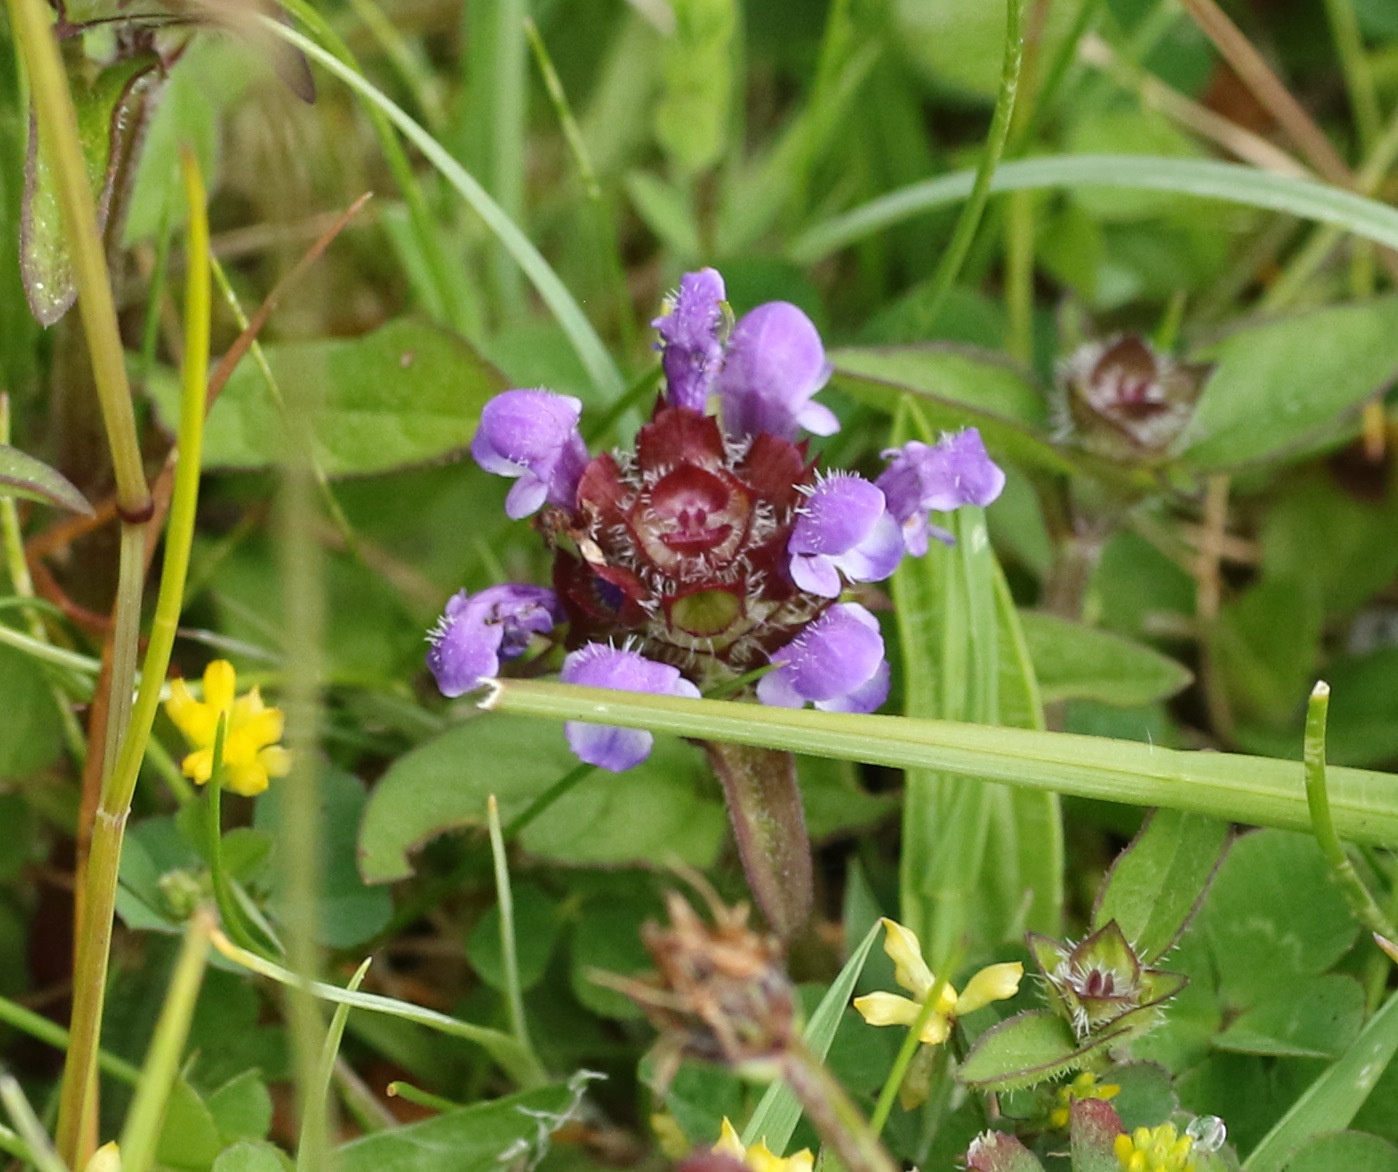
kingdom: Plantae
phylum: Tracheophyta
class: Magnoliopsida
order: Lamiales
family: Lamiaceae
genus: Prunella
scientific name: Prunella vulgaris
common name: Heal-all
